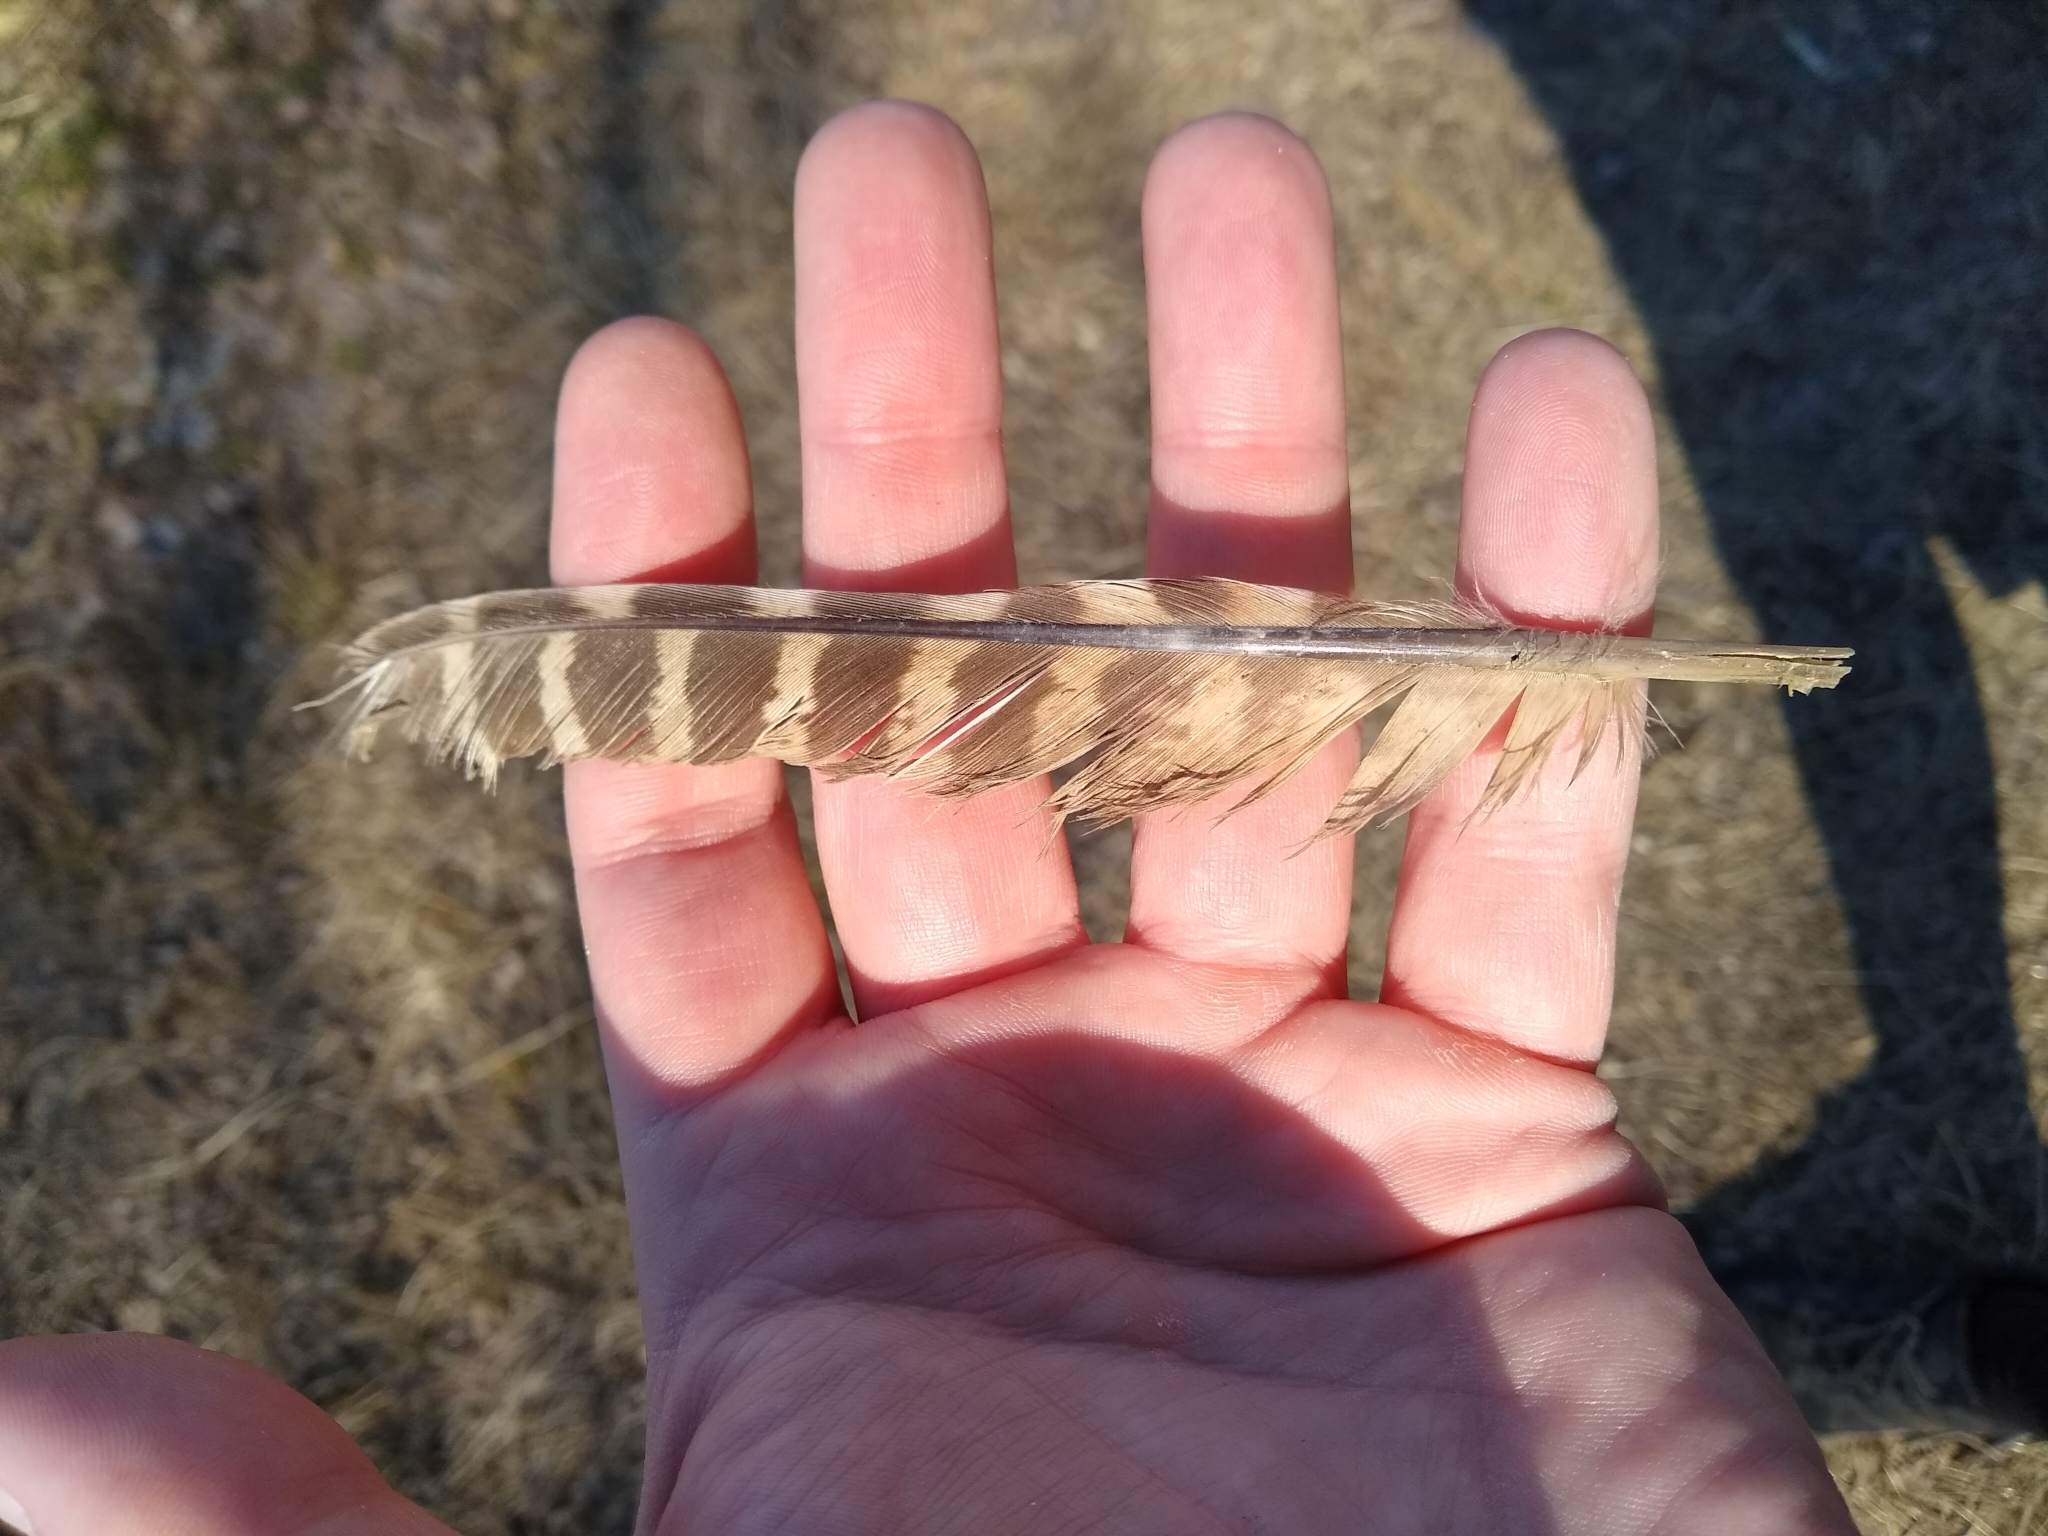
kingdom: Animalia
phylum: Chordata
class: Aves
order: Galliformes
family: Phasianidae
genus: Phasianus
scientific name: Phasianus colchicus
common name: Common pheasant
